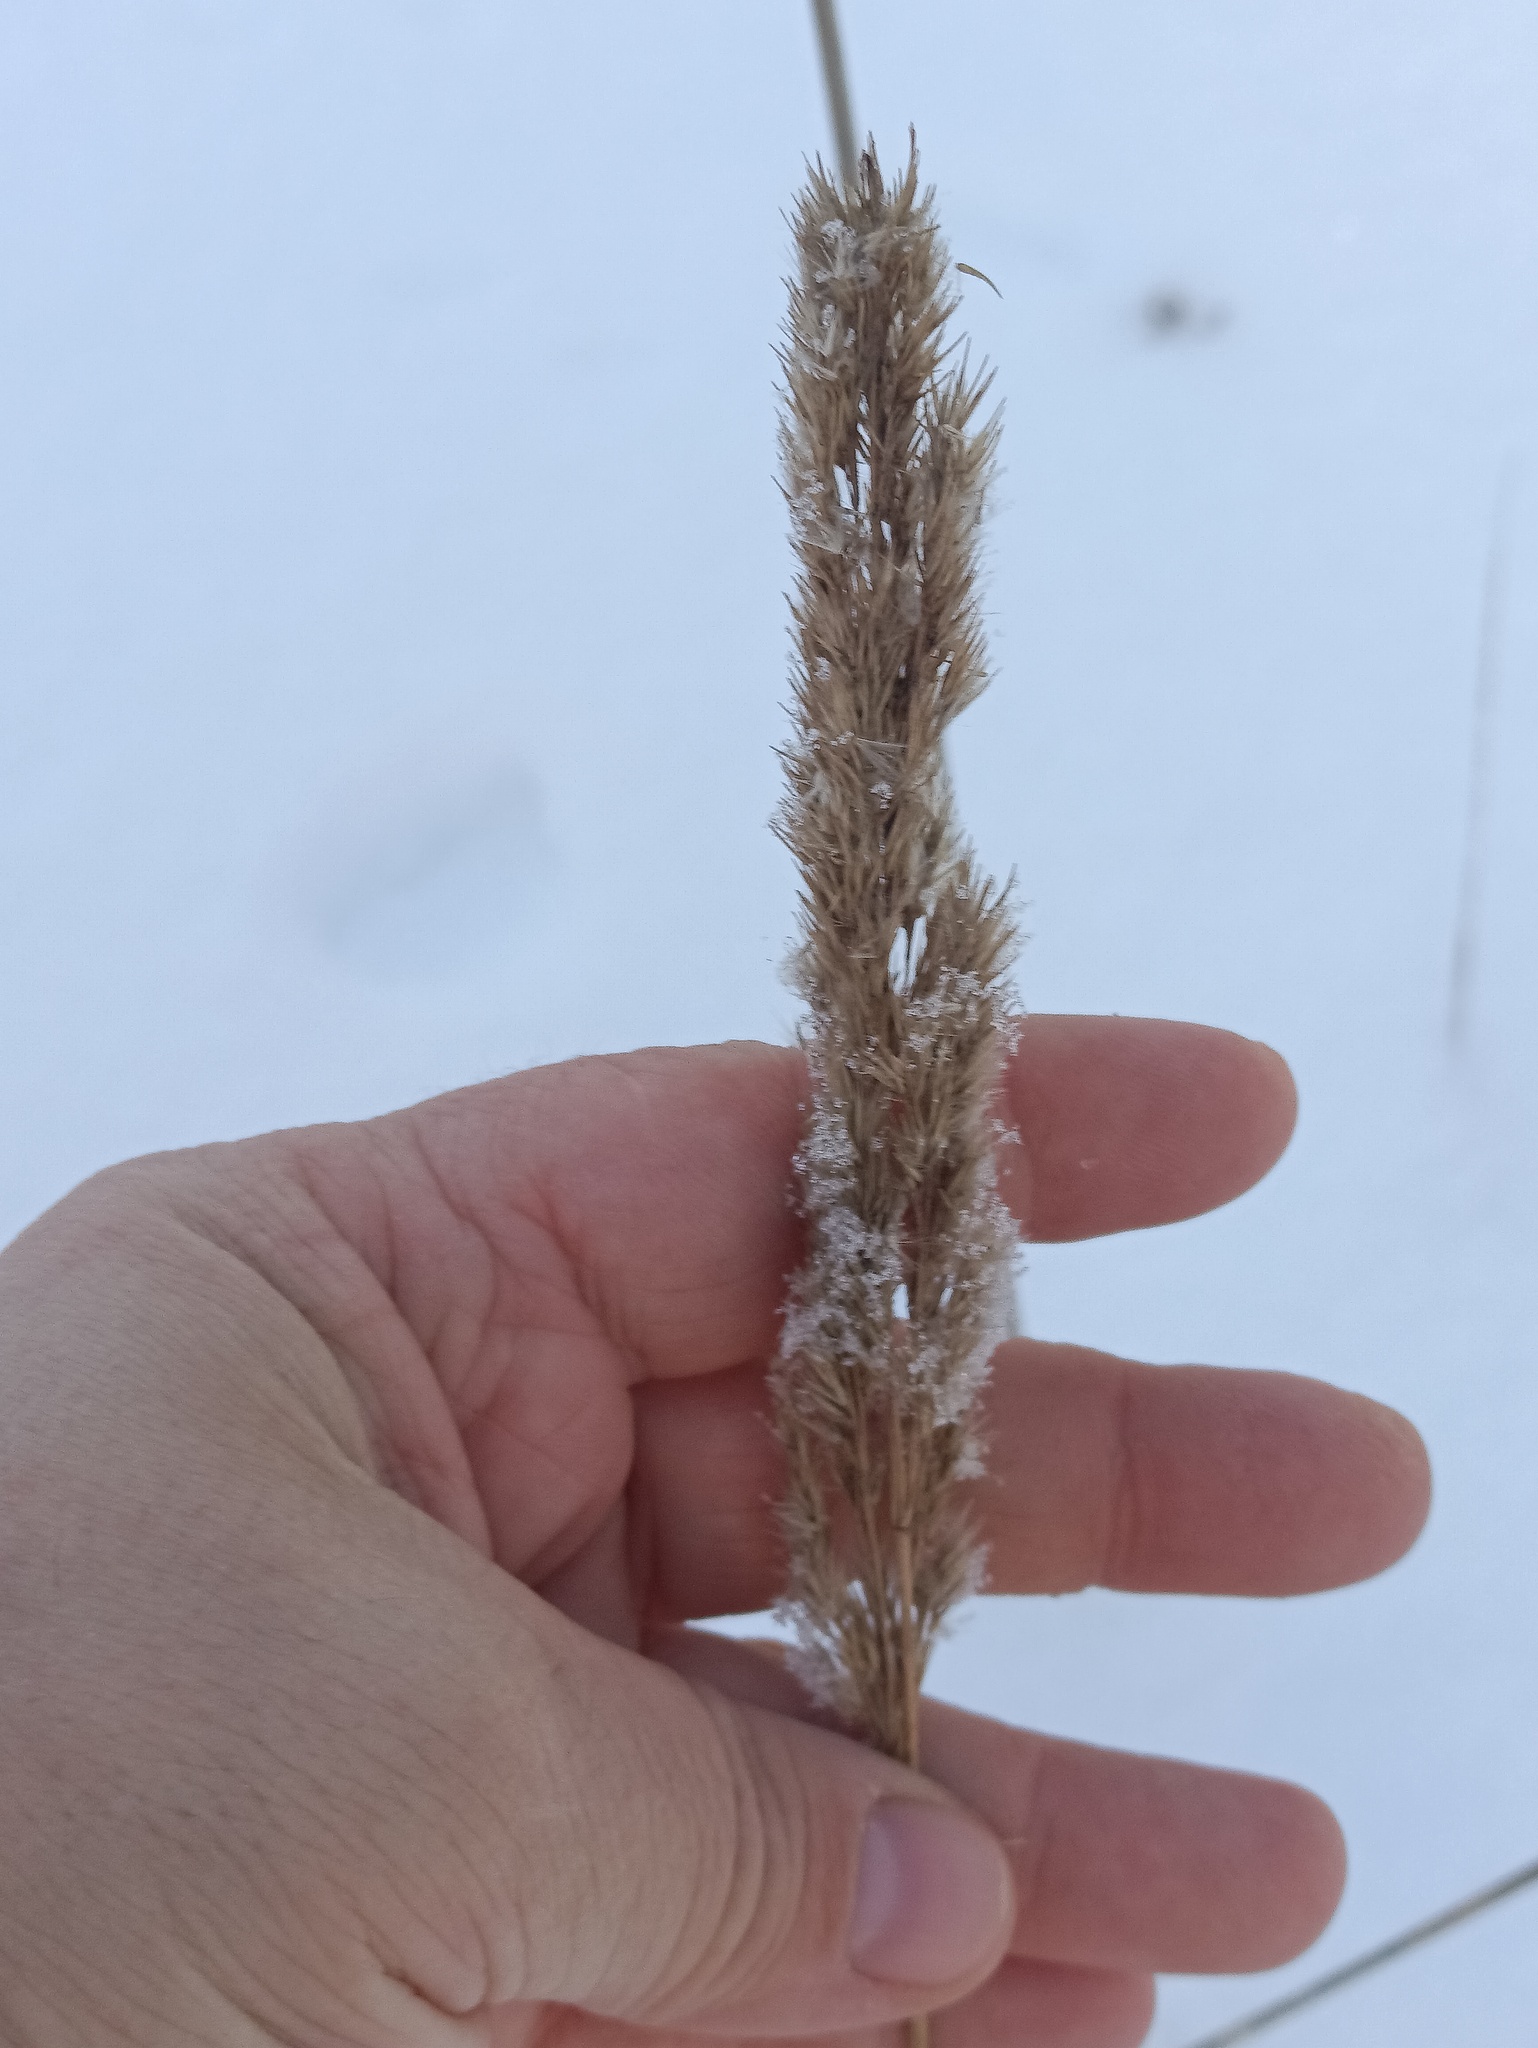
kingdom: Plantae
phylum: Tracheophyta
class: Liliopsida
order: Poales
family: Poaceae
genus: Calamagrostis
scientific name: Calamagrostis epigejos
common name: Wood small-reed
